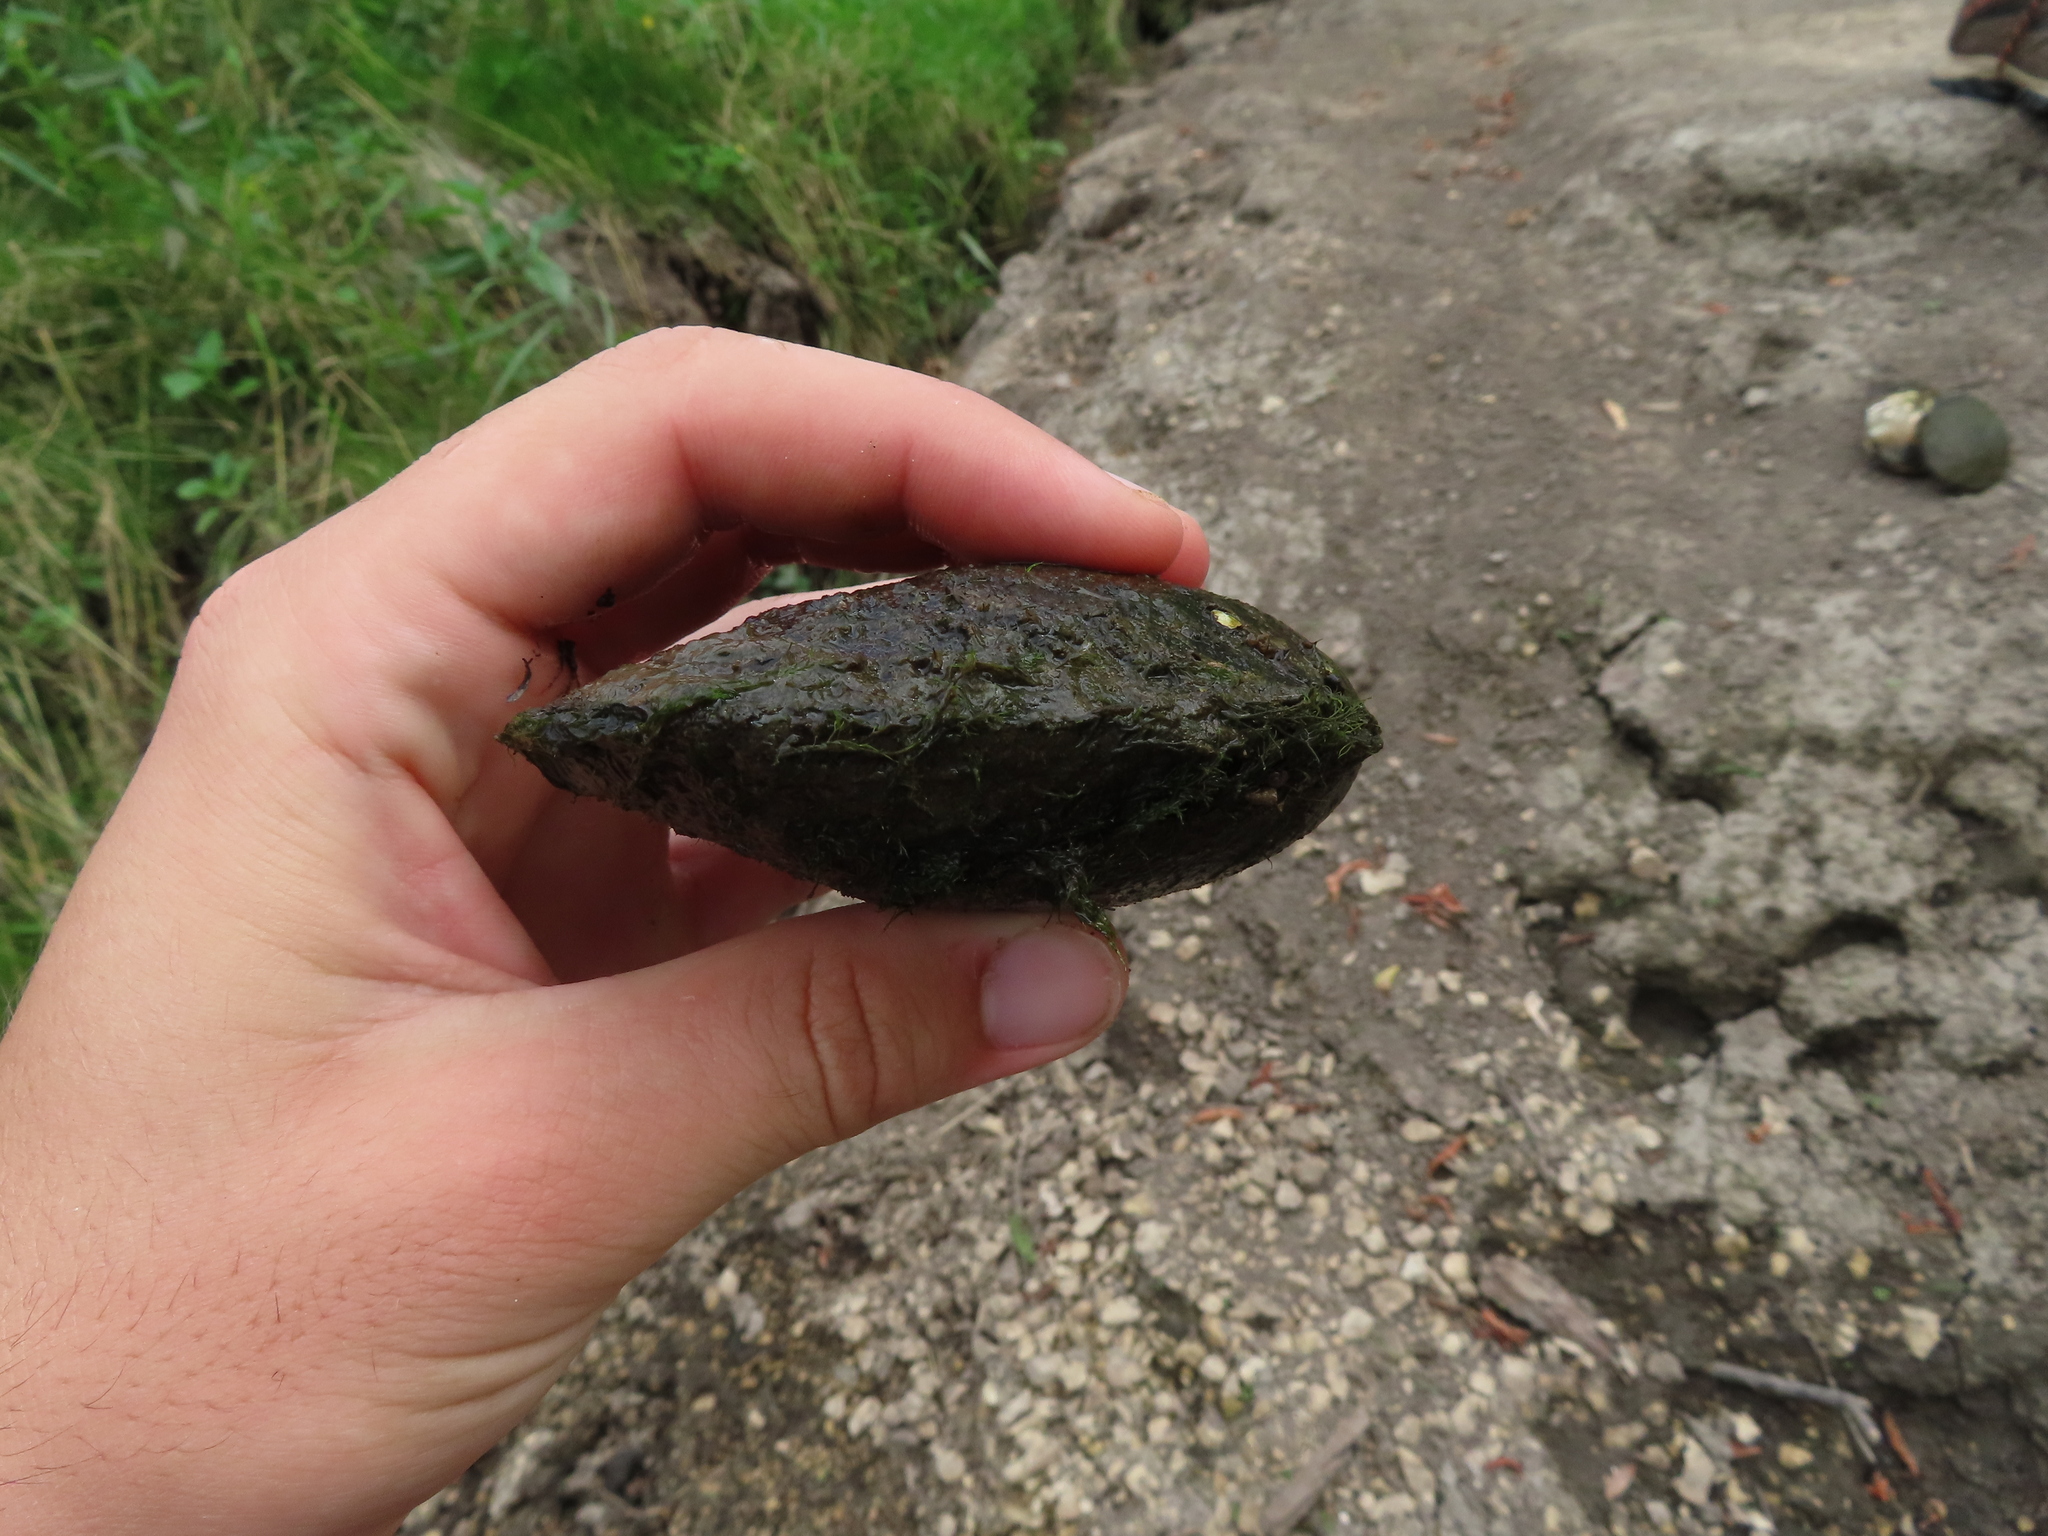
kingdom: Animalia
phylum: Mollusca
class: Bivalvia
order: Unionida
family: Unionidae
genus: Lasmigona
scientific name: Lasmigona complanata
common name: White heelsplitter
